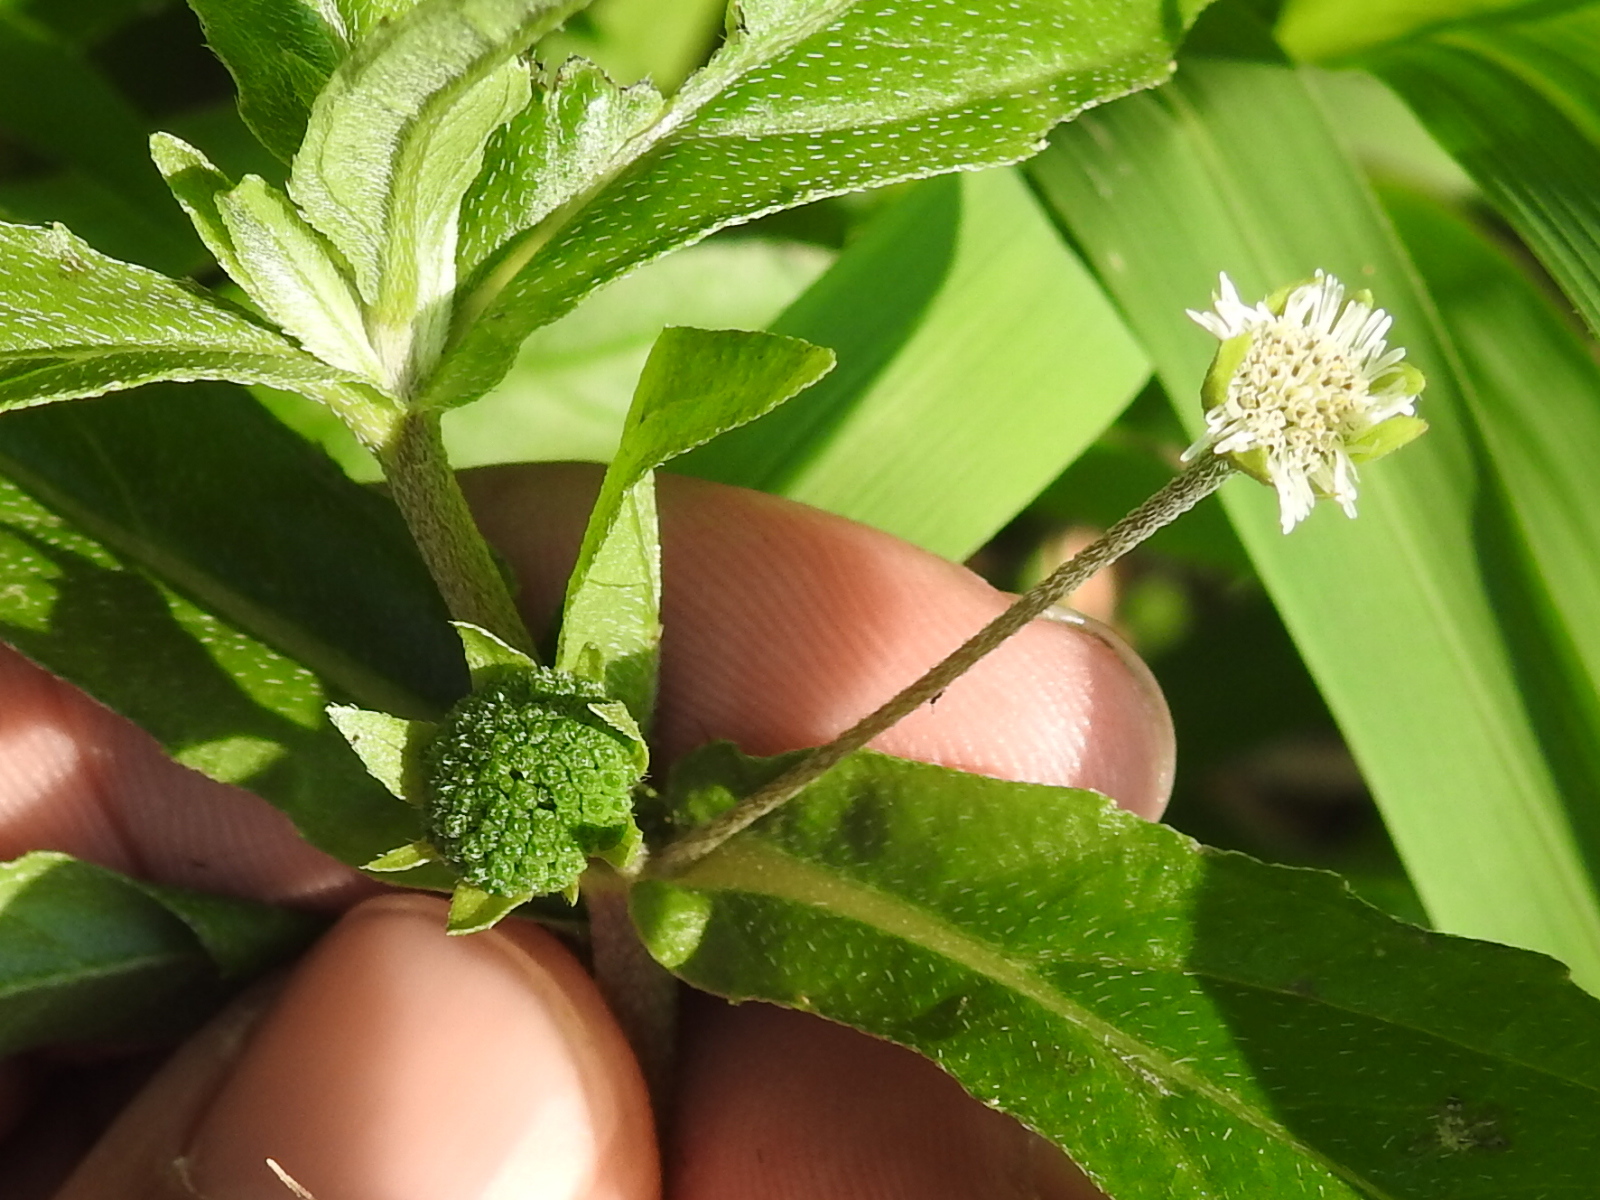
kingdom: Plantae
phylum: Tracheophyta
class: Magnoliopsida
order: Asterales
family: Asteraceae
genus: Eclipta
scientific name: Eclipta prostrata
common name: False daisy
